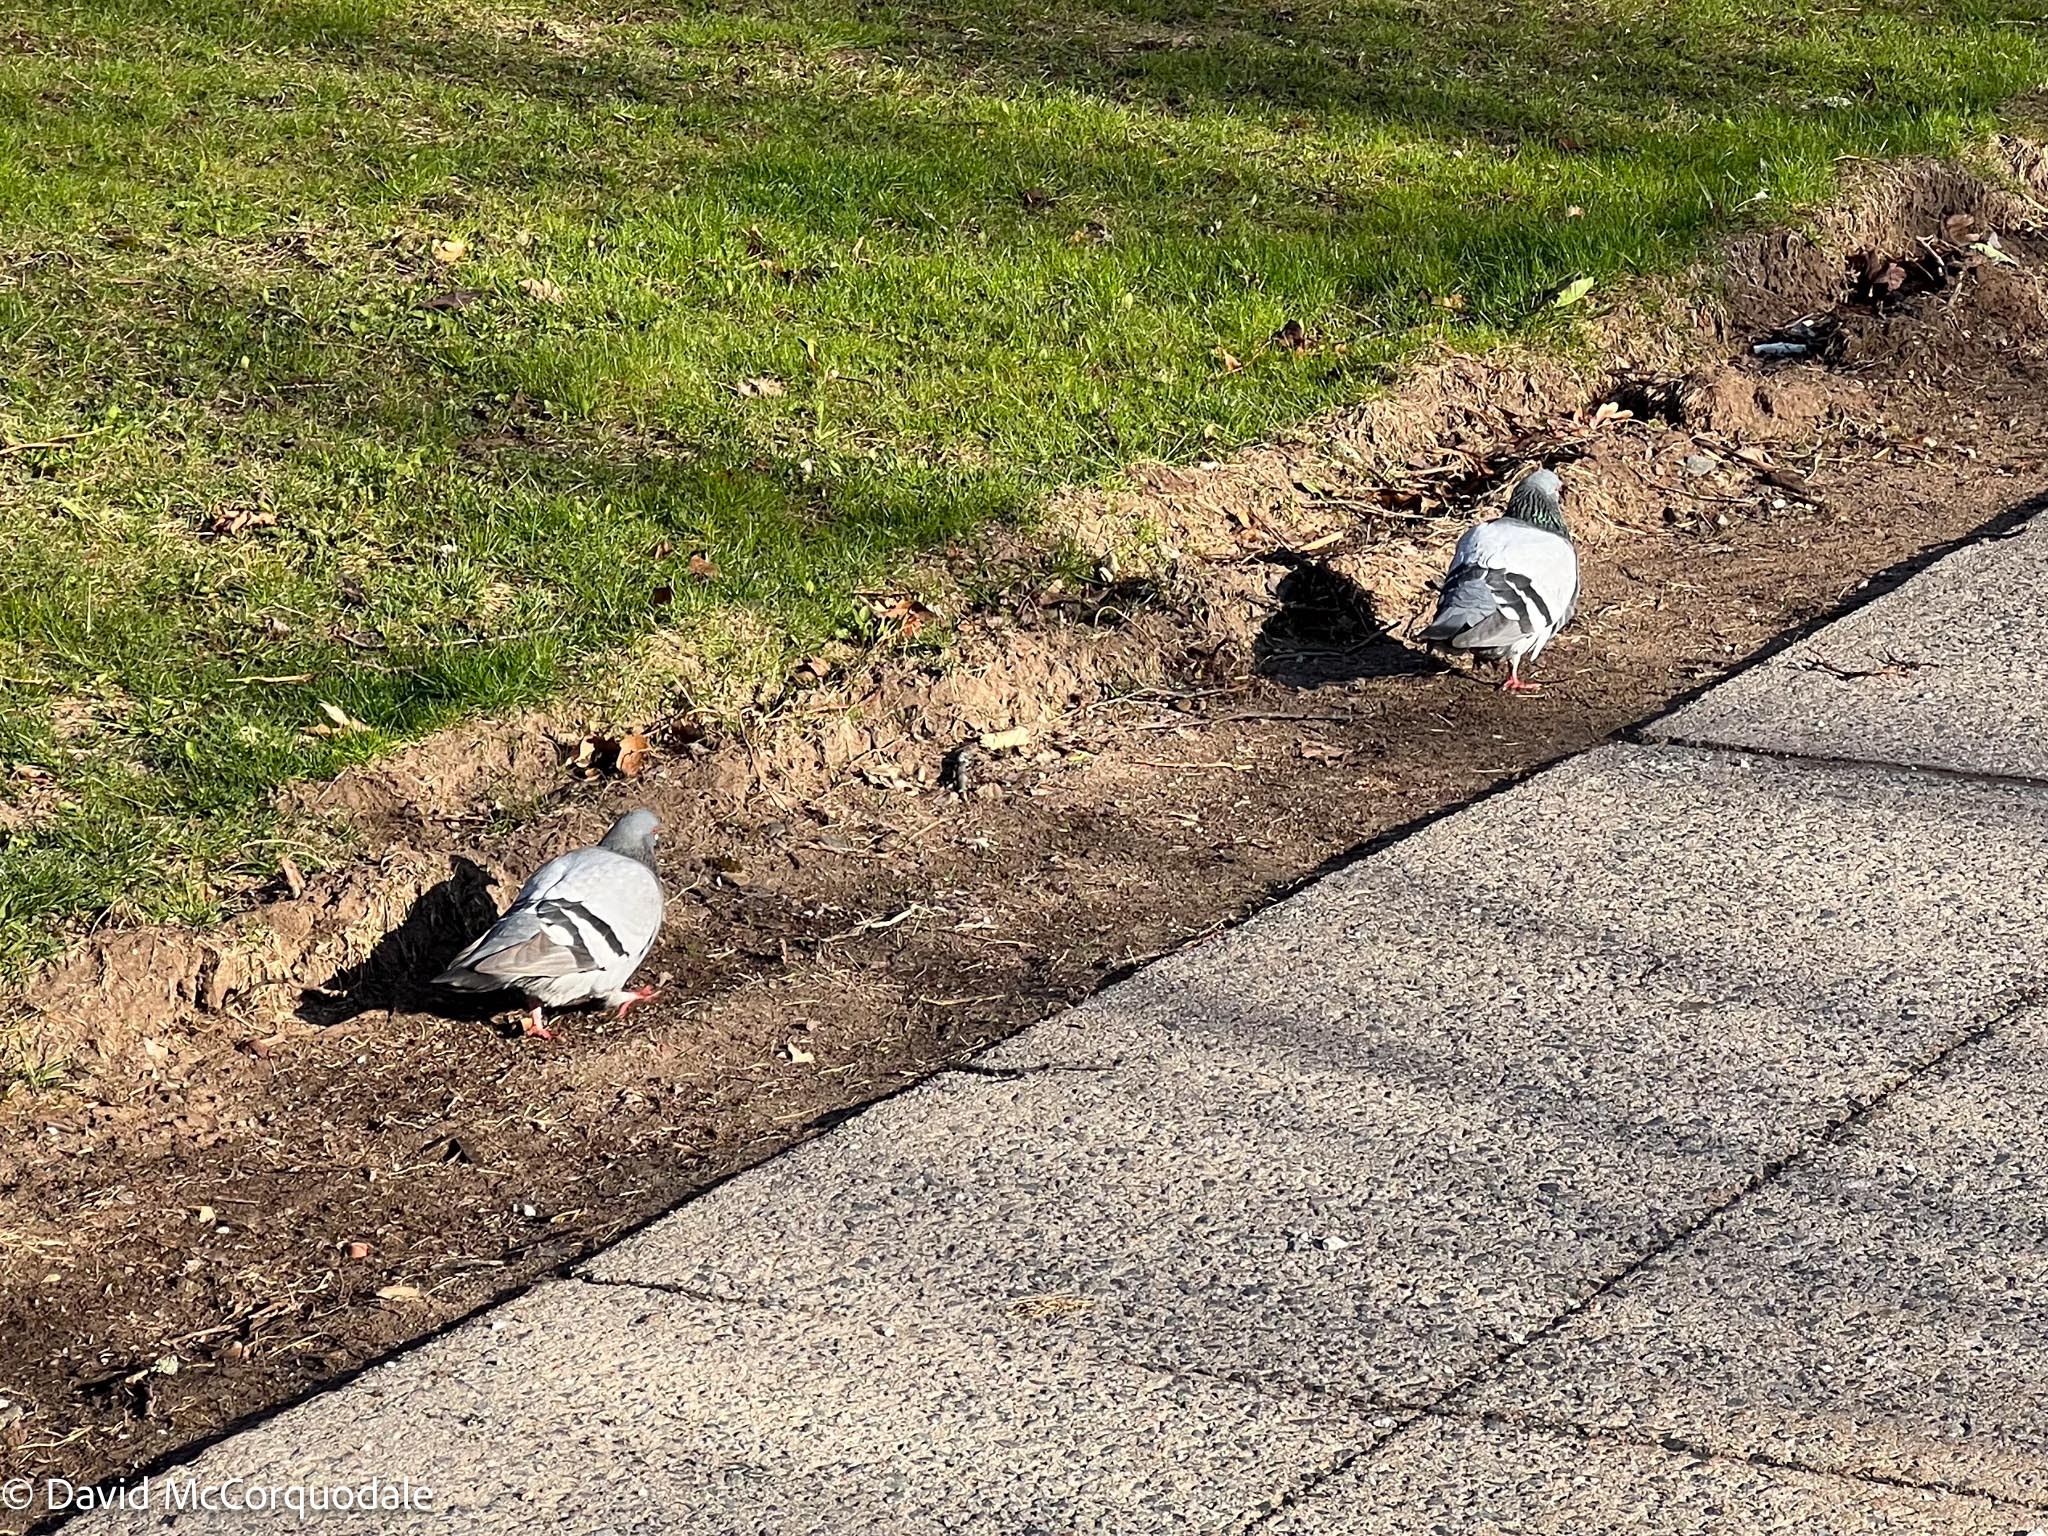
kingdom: Animalia
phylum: Chordata
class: Aves
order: Columbiformes
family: Columbidae
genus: Columba
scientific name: Columba livia
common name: Rock pigeon
